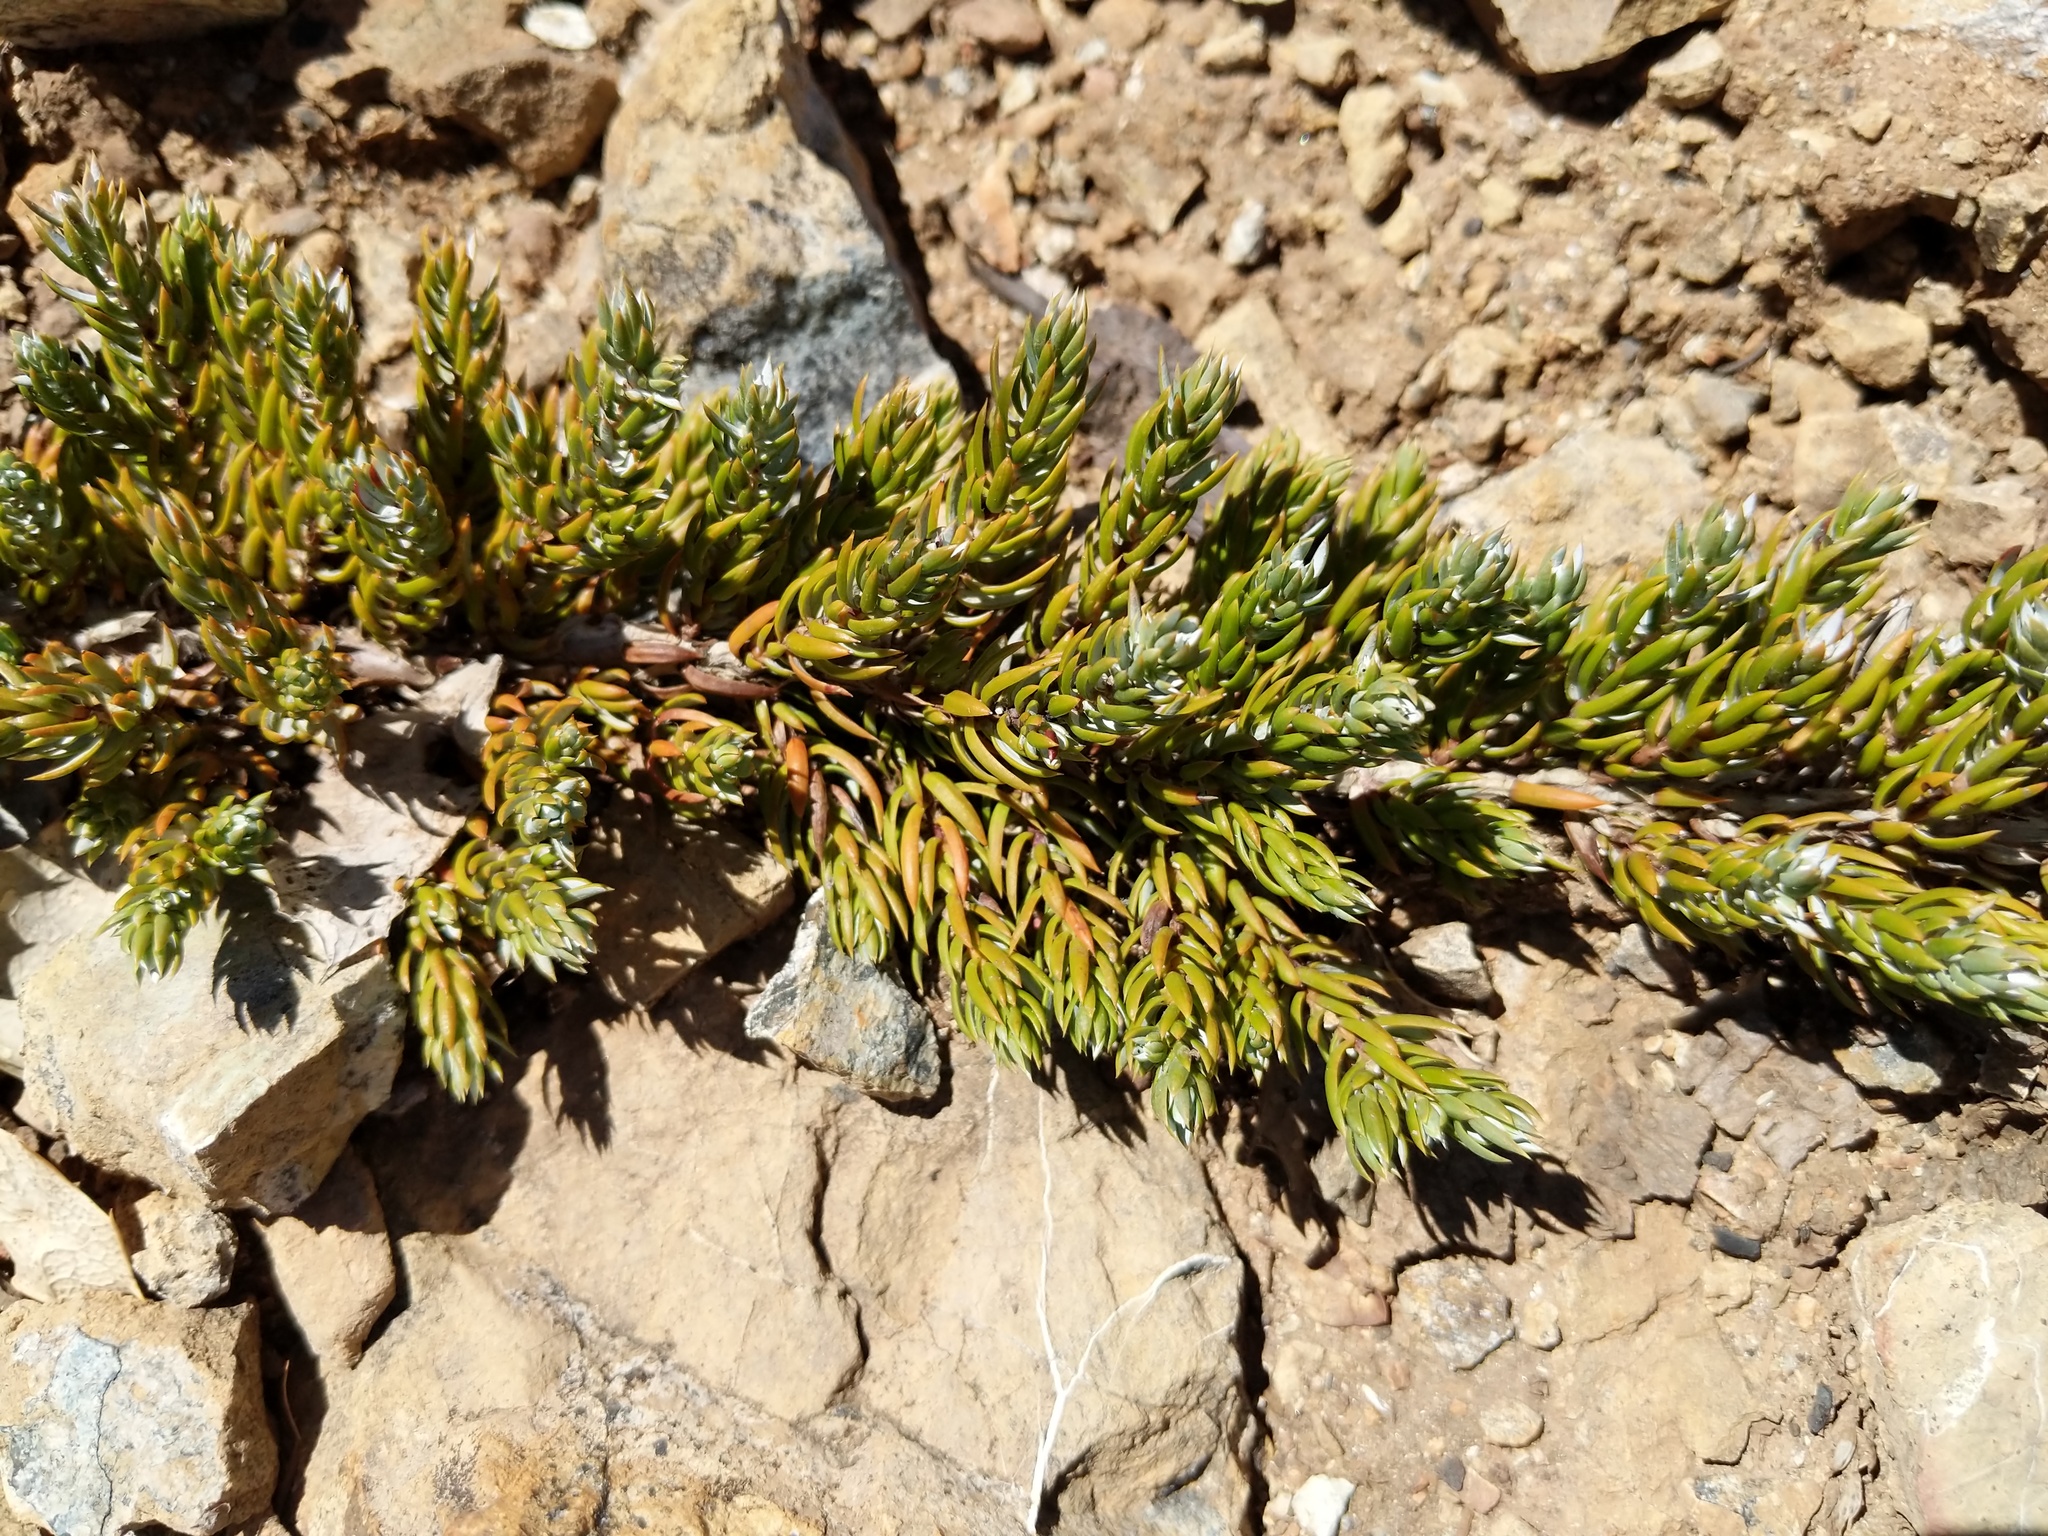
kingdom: Plantae
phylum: Tracheophyta
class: Pinopsida
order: Pinales
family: Cupressaceae
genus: Juniperus
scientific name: Juniperus communis
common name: Common juniper
